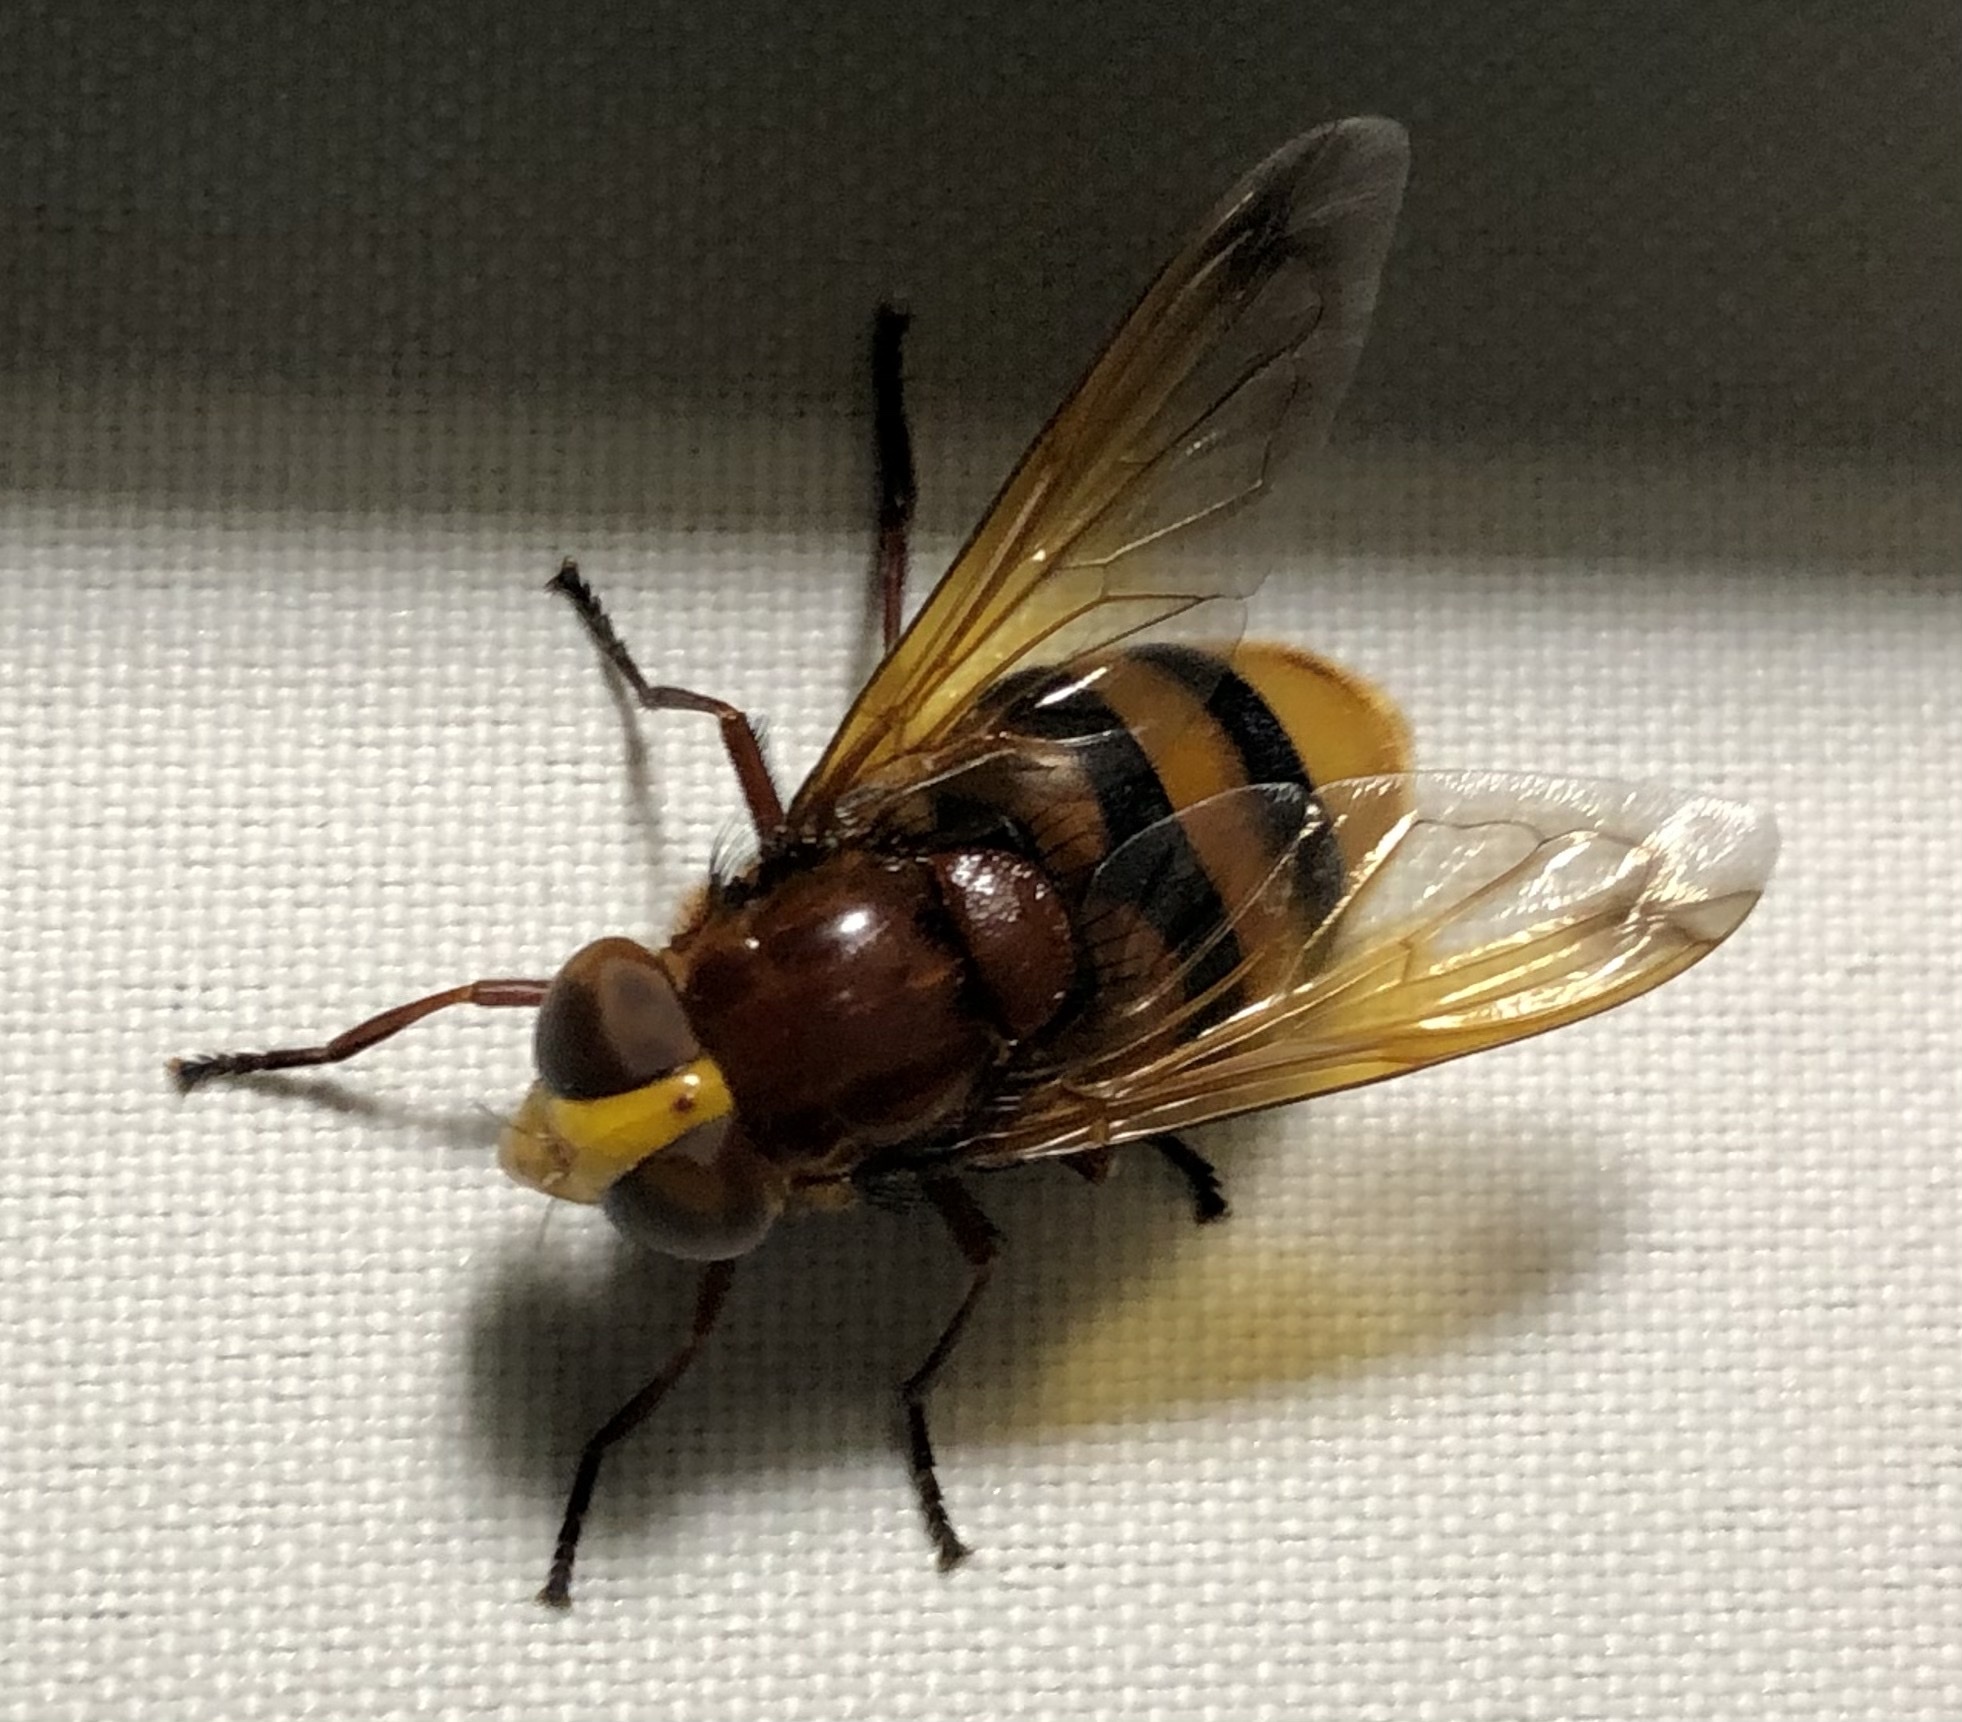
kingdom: Animalia
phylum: Arthropoda
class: Insecta
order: Diptera
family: Syrphidae
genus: Volucella
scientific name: Volucella zonaria
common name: Hornet hoverfly
